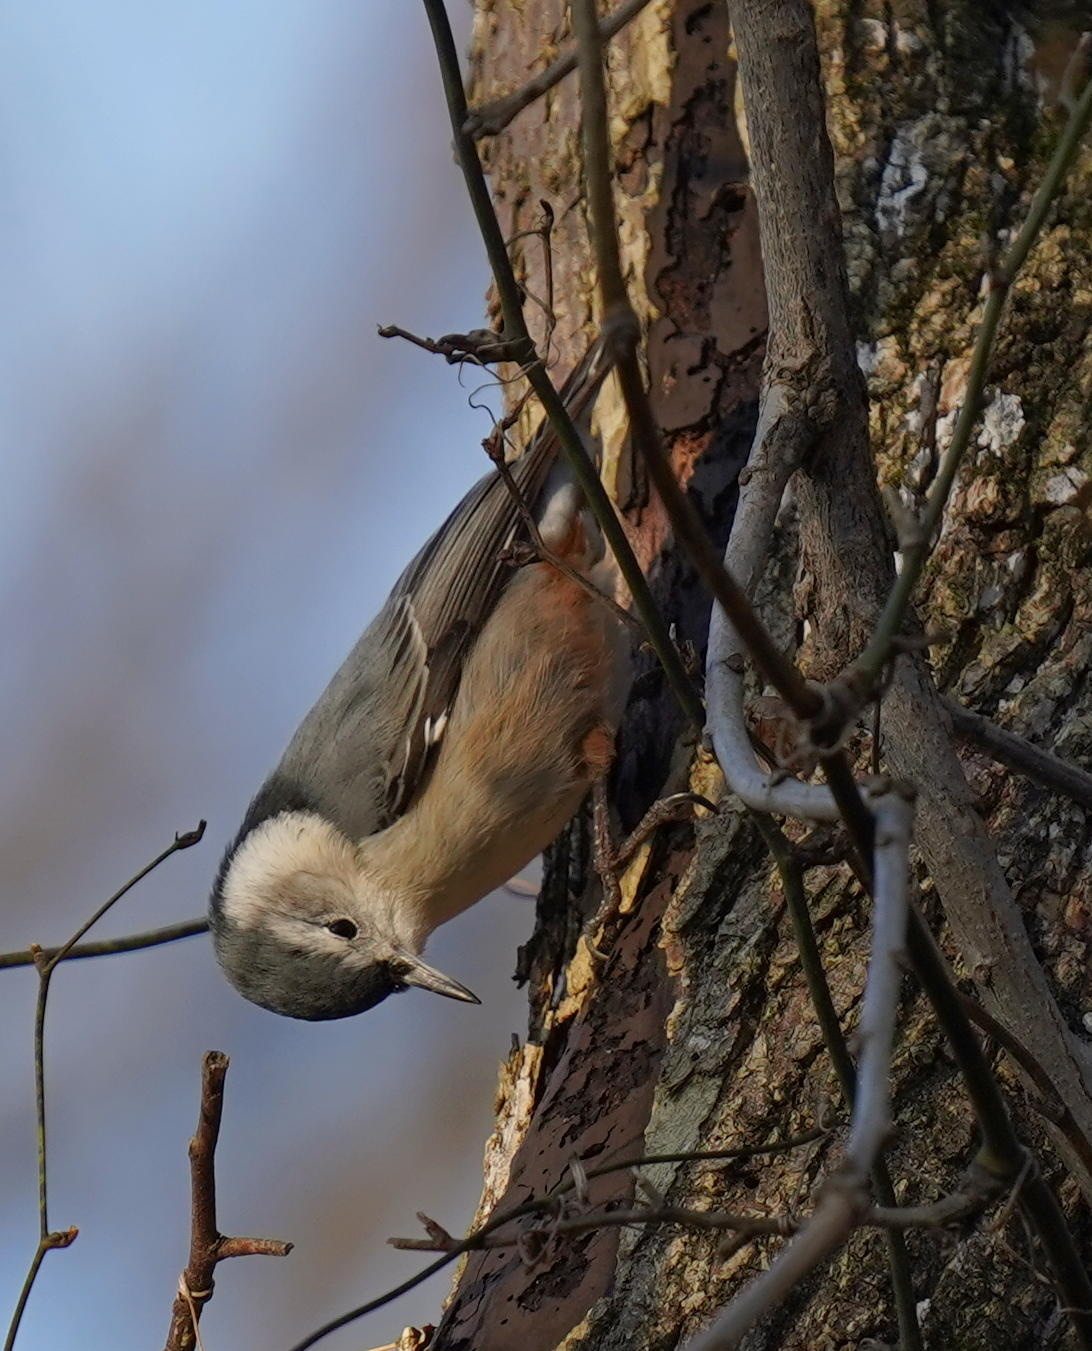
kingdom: Animalia
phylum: Chordata
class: Aves
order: Passeriformes
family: Sittidae
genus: Sitta
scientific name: Sitta carolinensis
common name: White-breasted nuthatch
